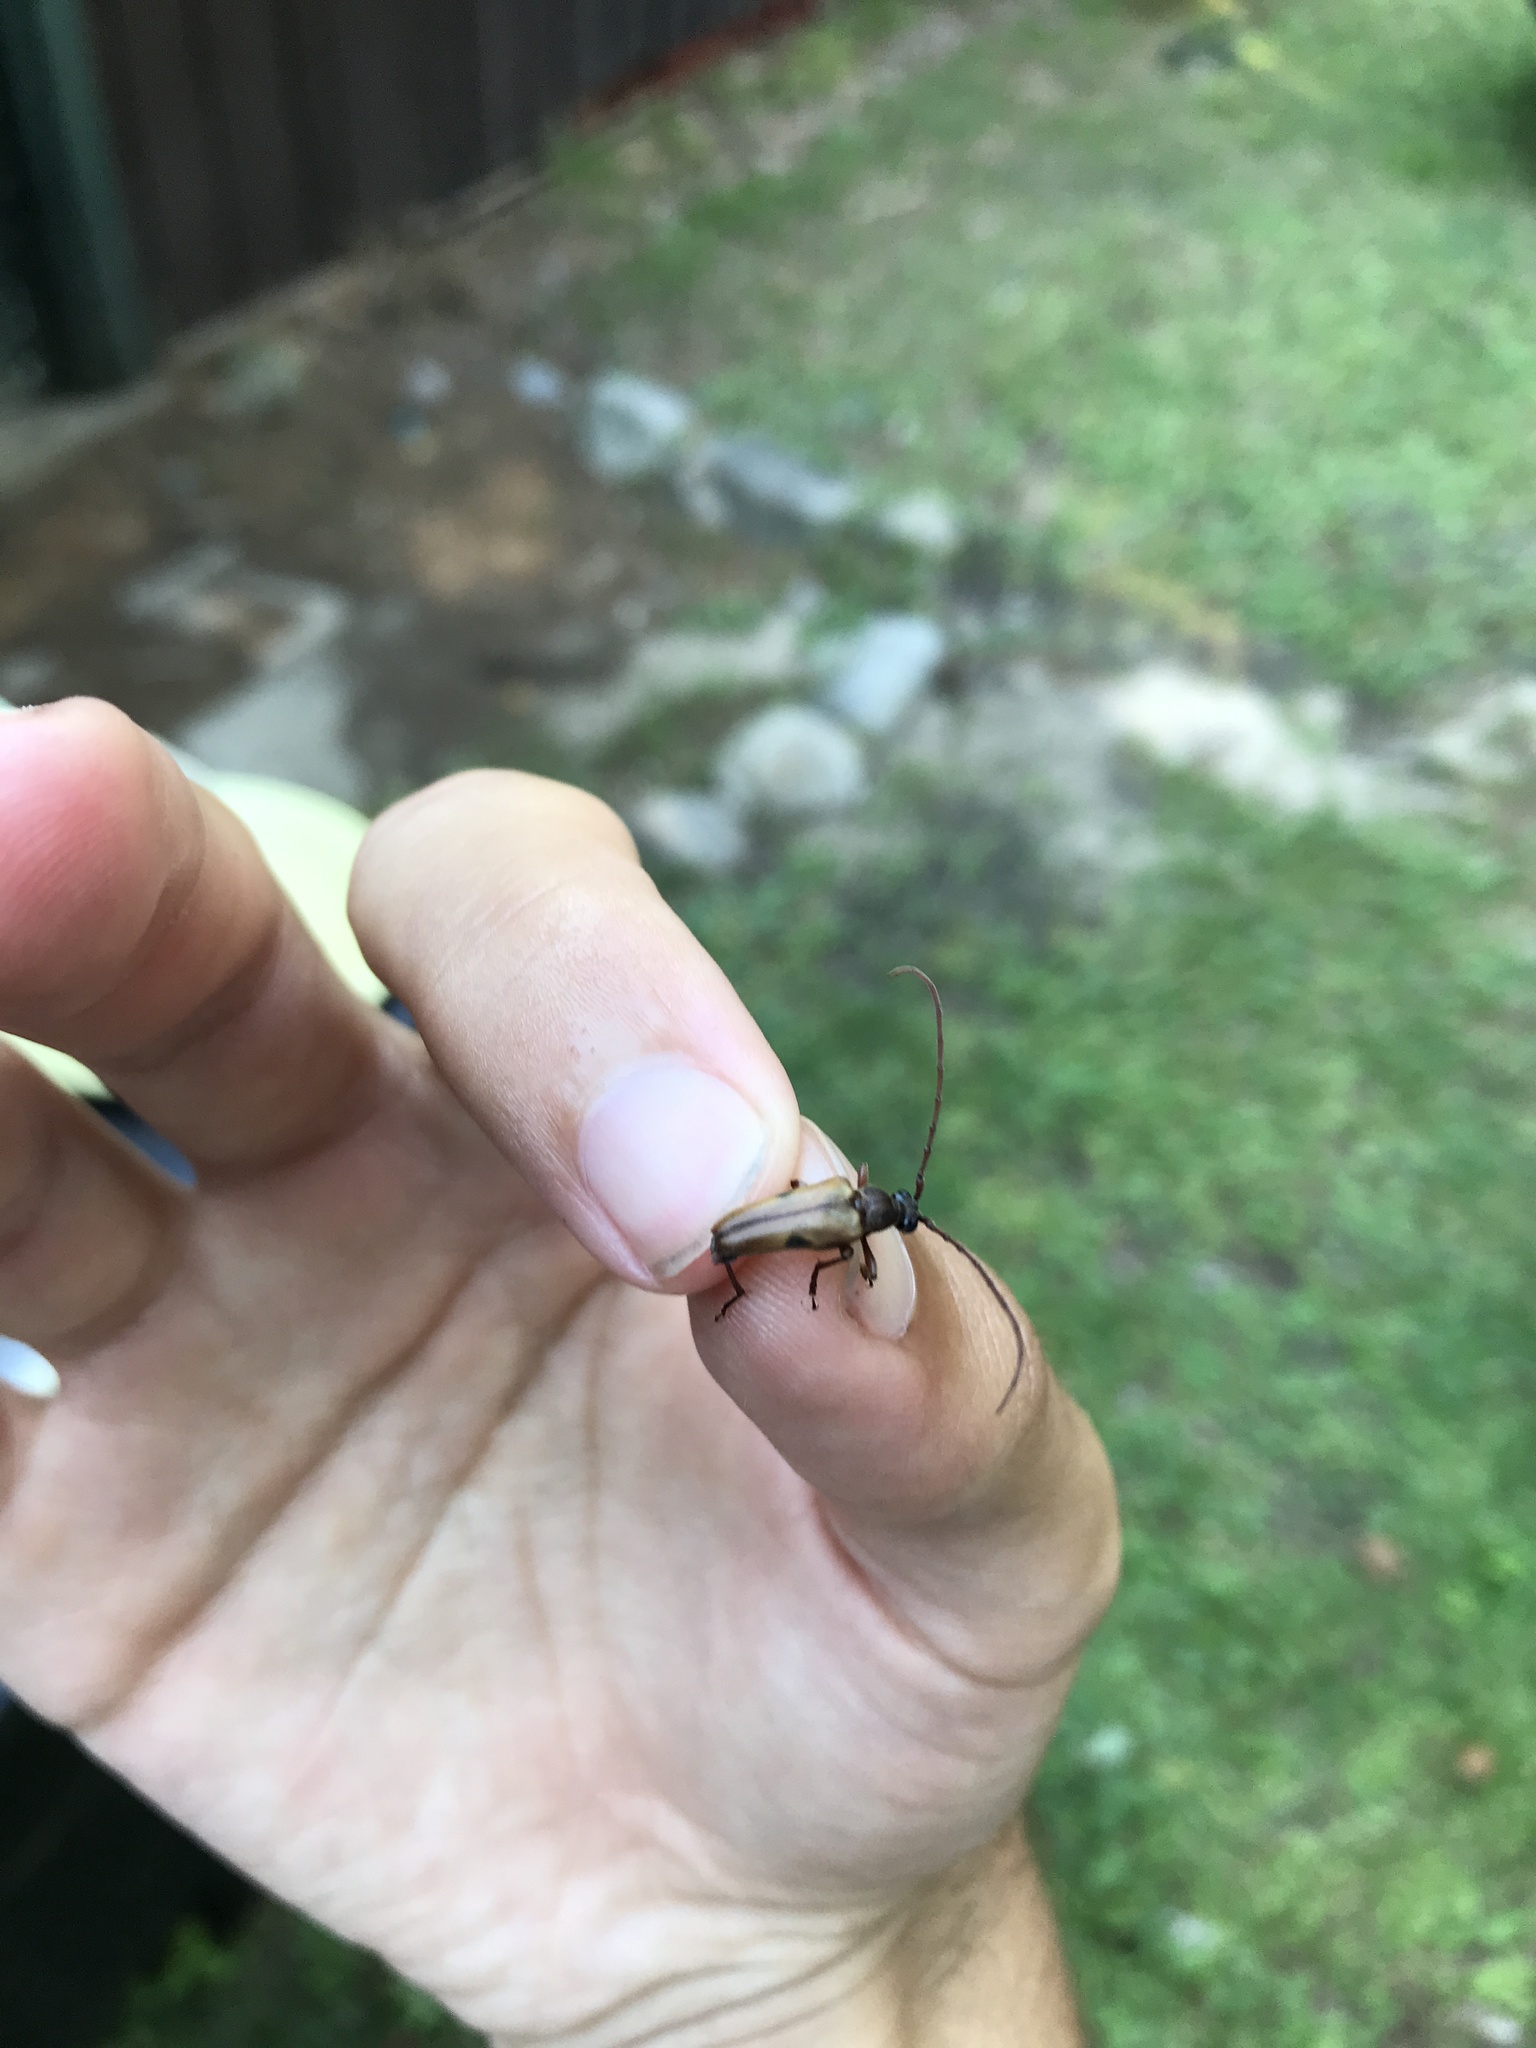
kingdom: Animalia
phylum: Arthropoda
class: Insecta
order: Coleoptera
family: Cerambycidae
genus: Lepturopsis
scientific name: Lepturopsis biforis
